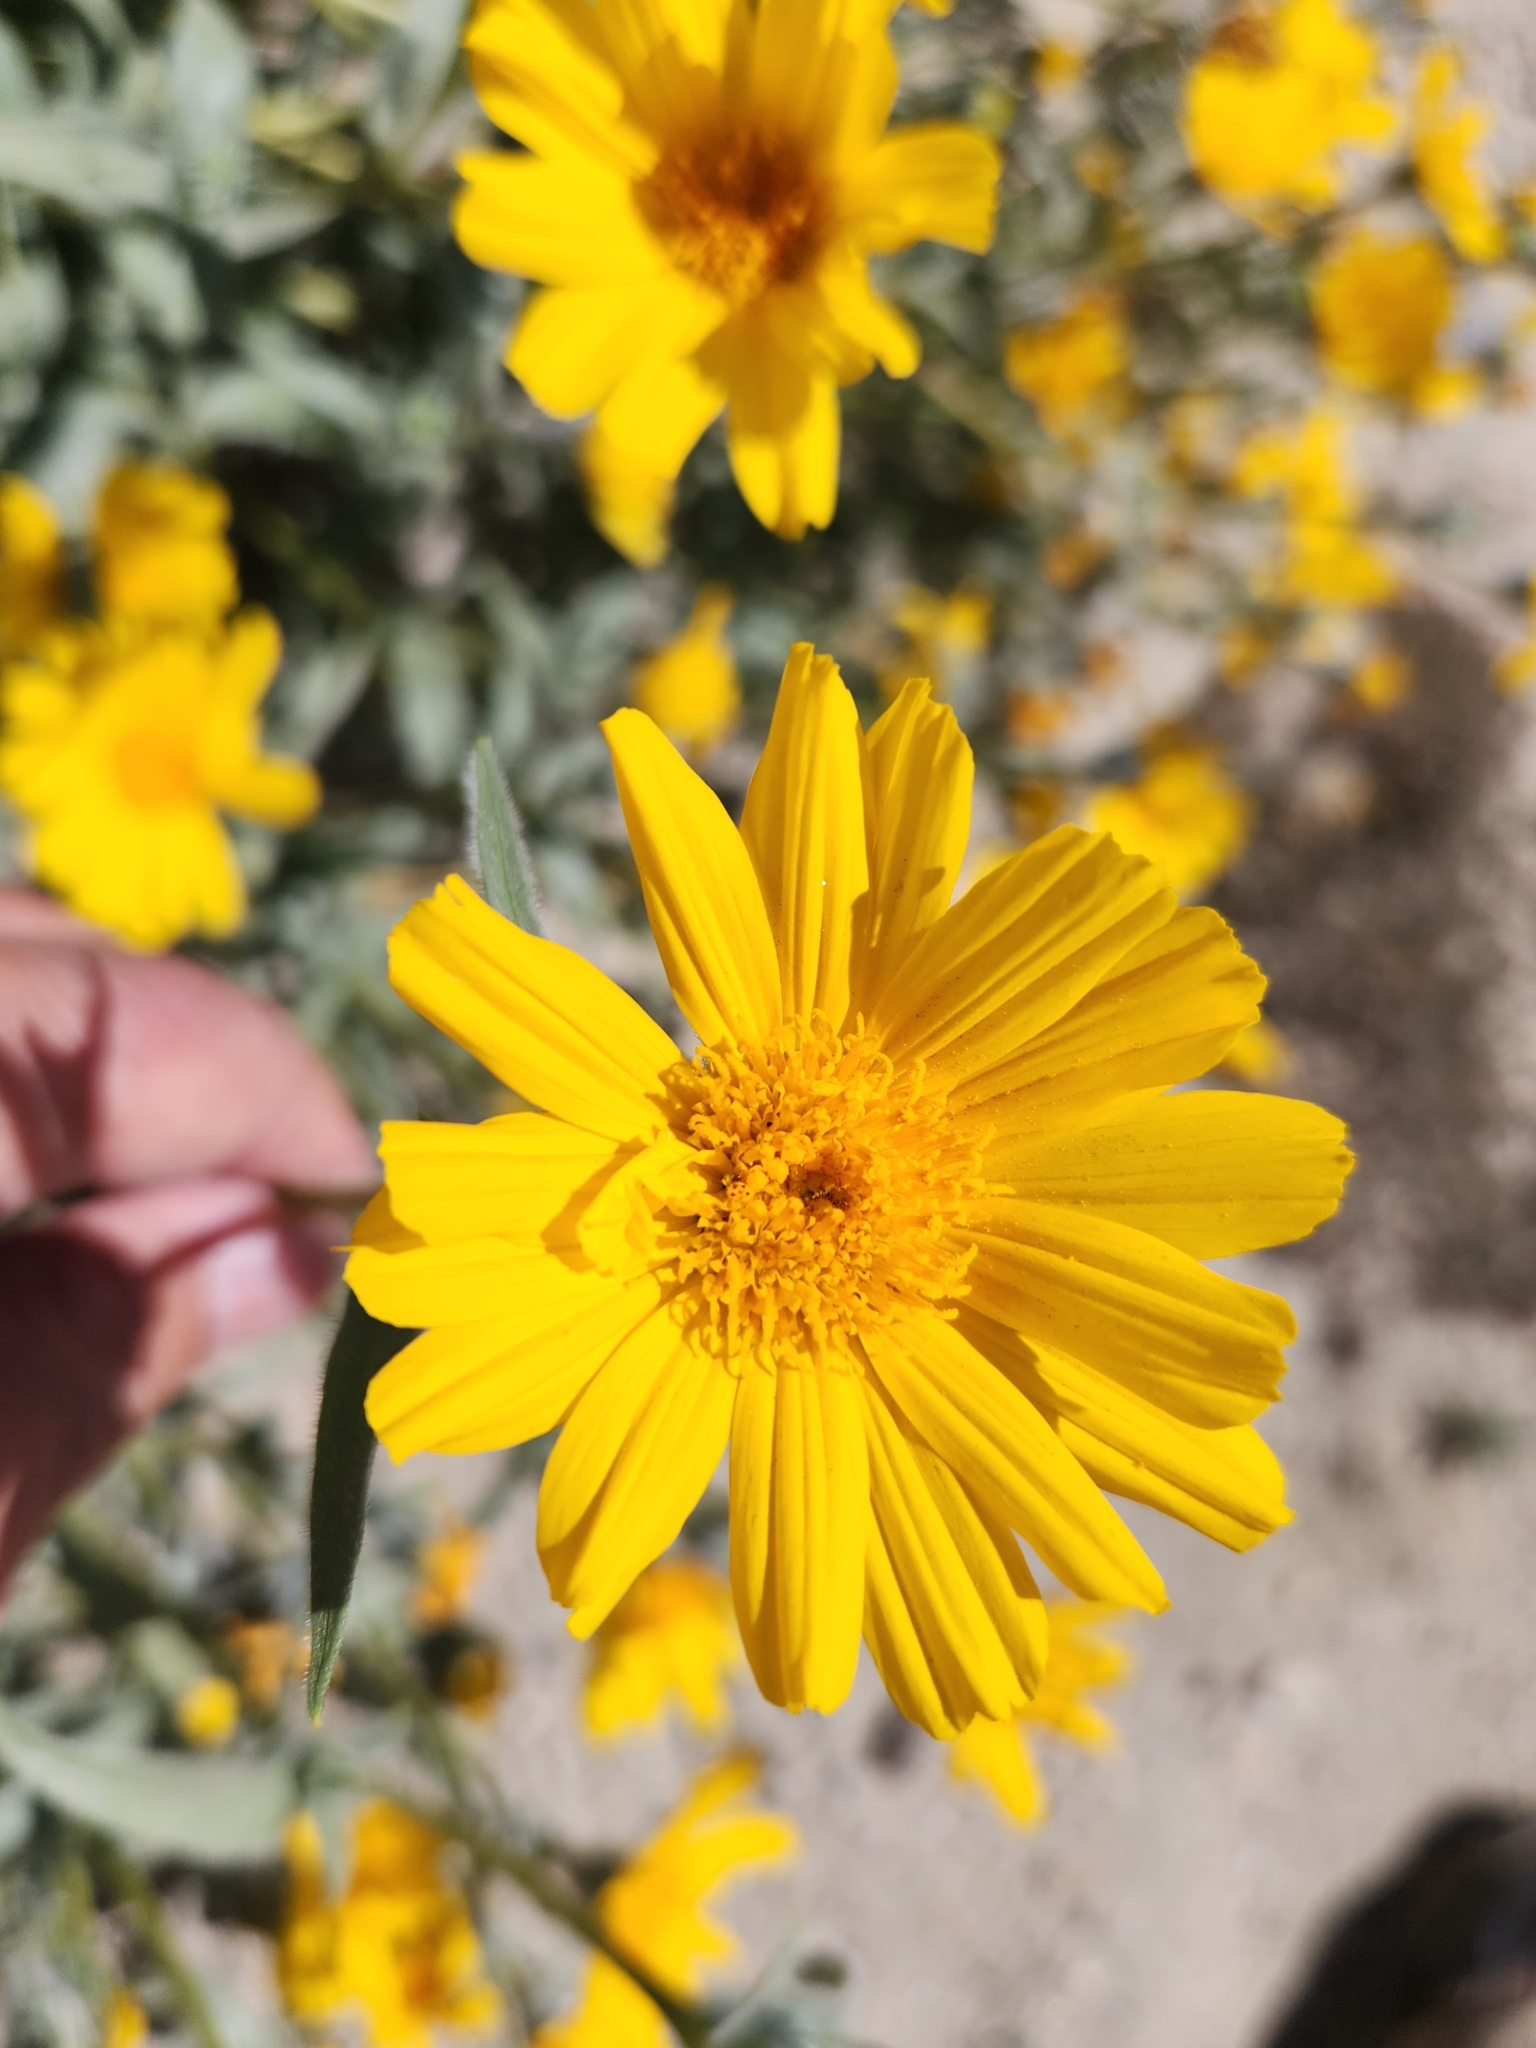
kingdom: Plantae
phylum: Tracheophyta
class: Magnoliopsida
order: Asterales
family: Asteraceae
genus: Geraea
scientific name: Geraea canescens
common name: Desert-gold
